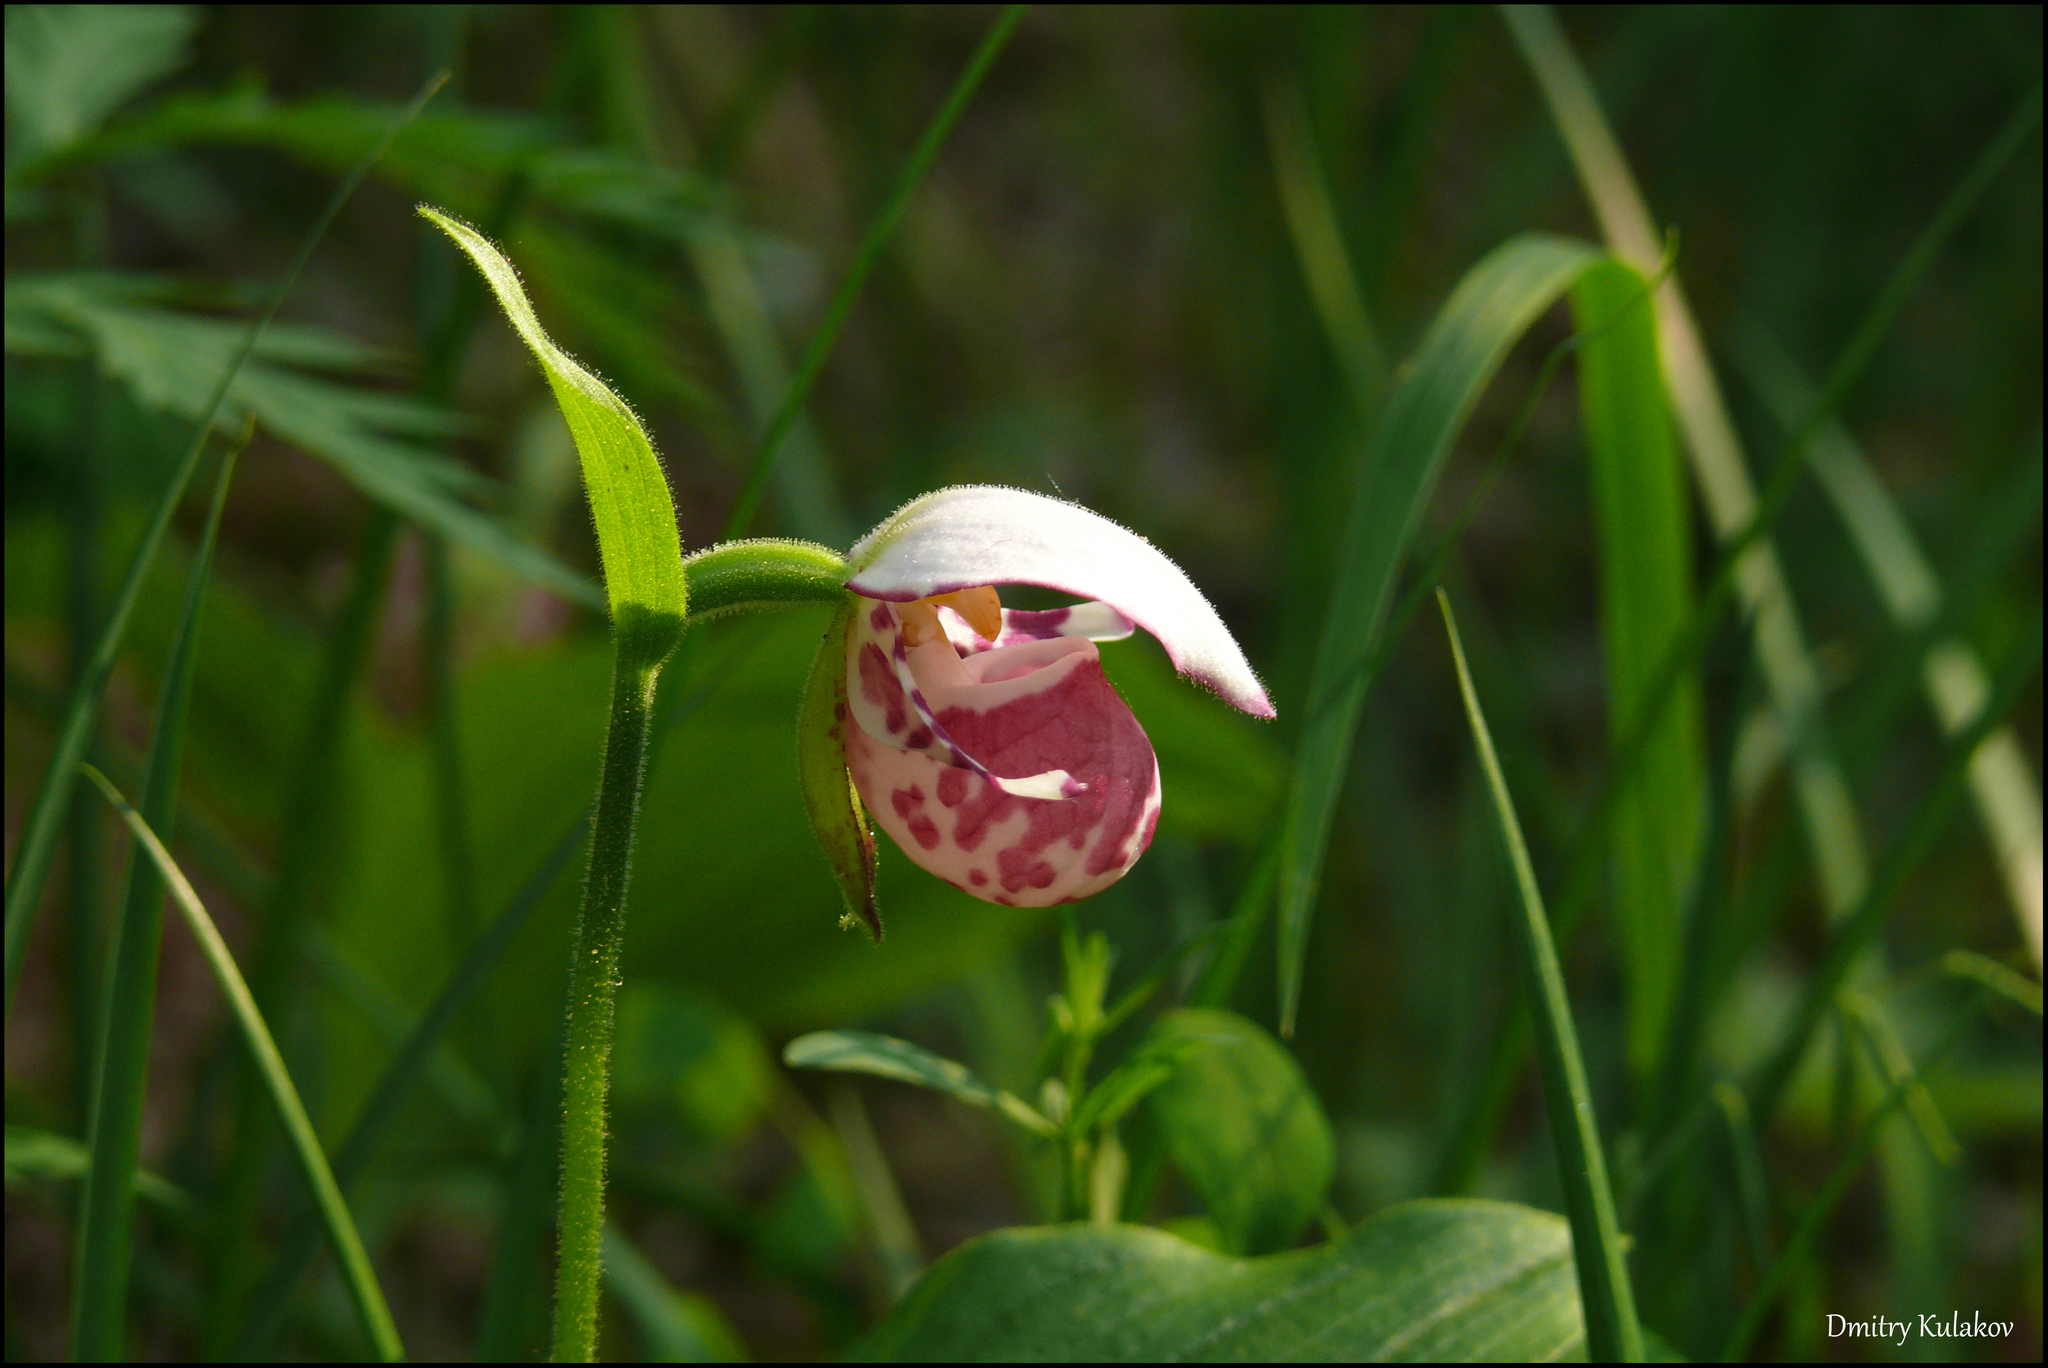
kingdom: Plantae
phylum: Tracheophyta
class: Liliopsida
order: Asparagales
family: Orchidaceae
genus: Cypripedium
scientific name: Cypripedium guttatum
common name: Pink lady slipper
